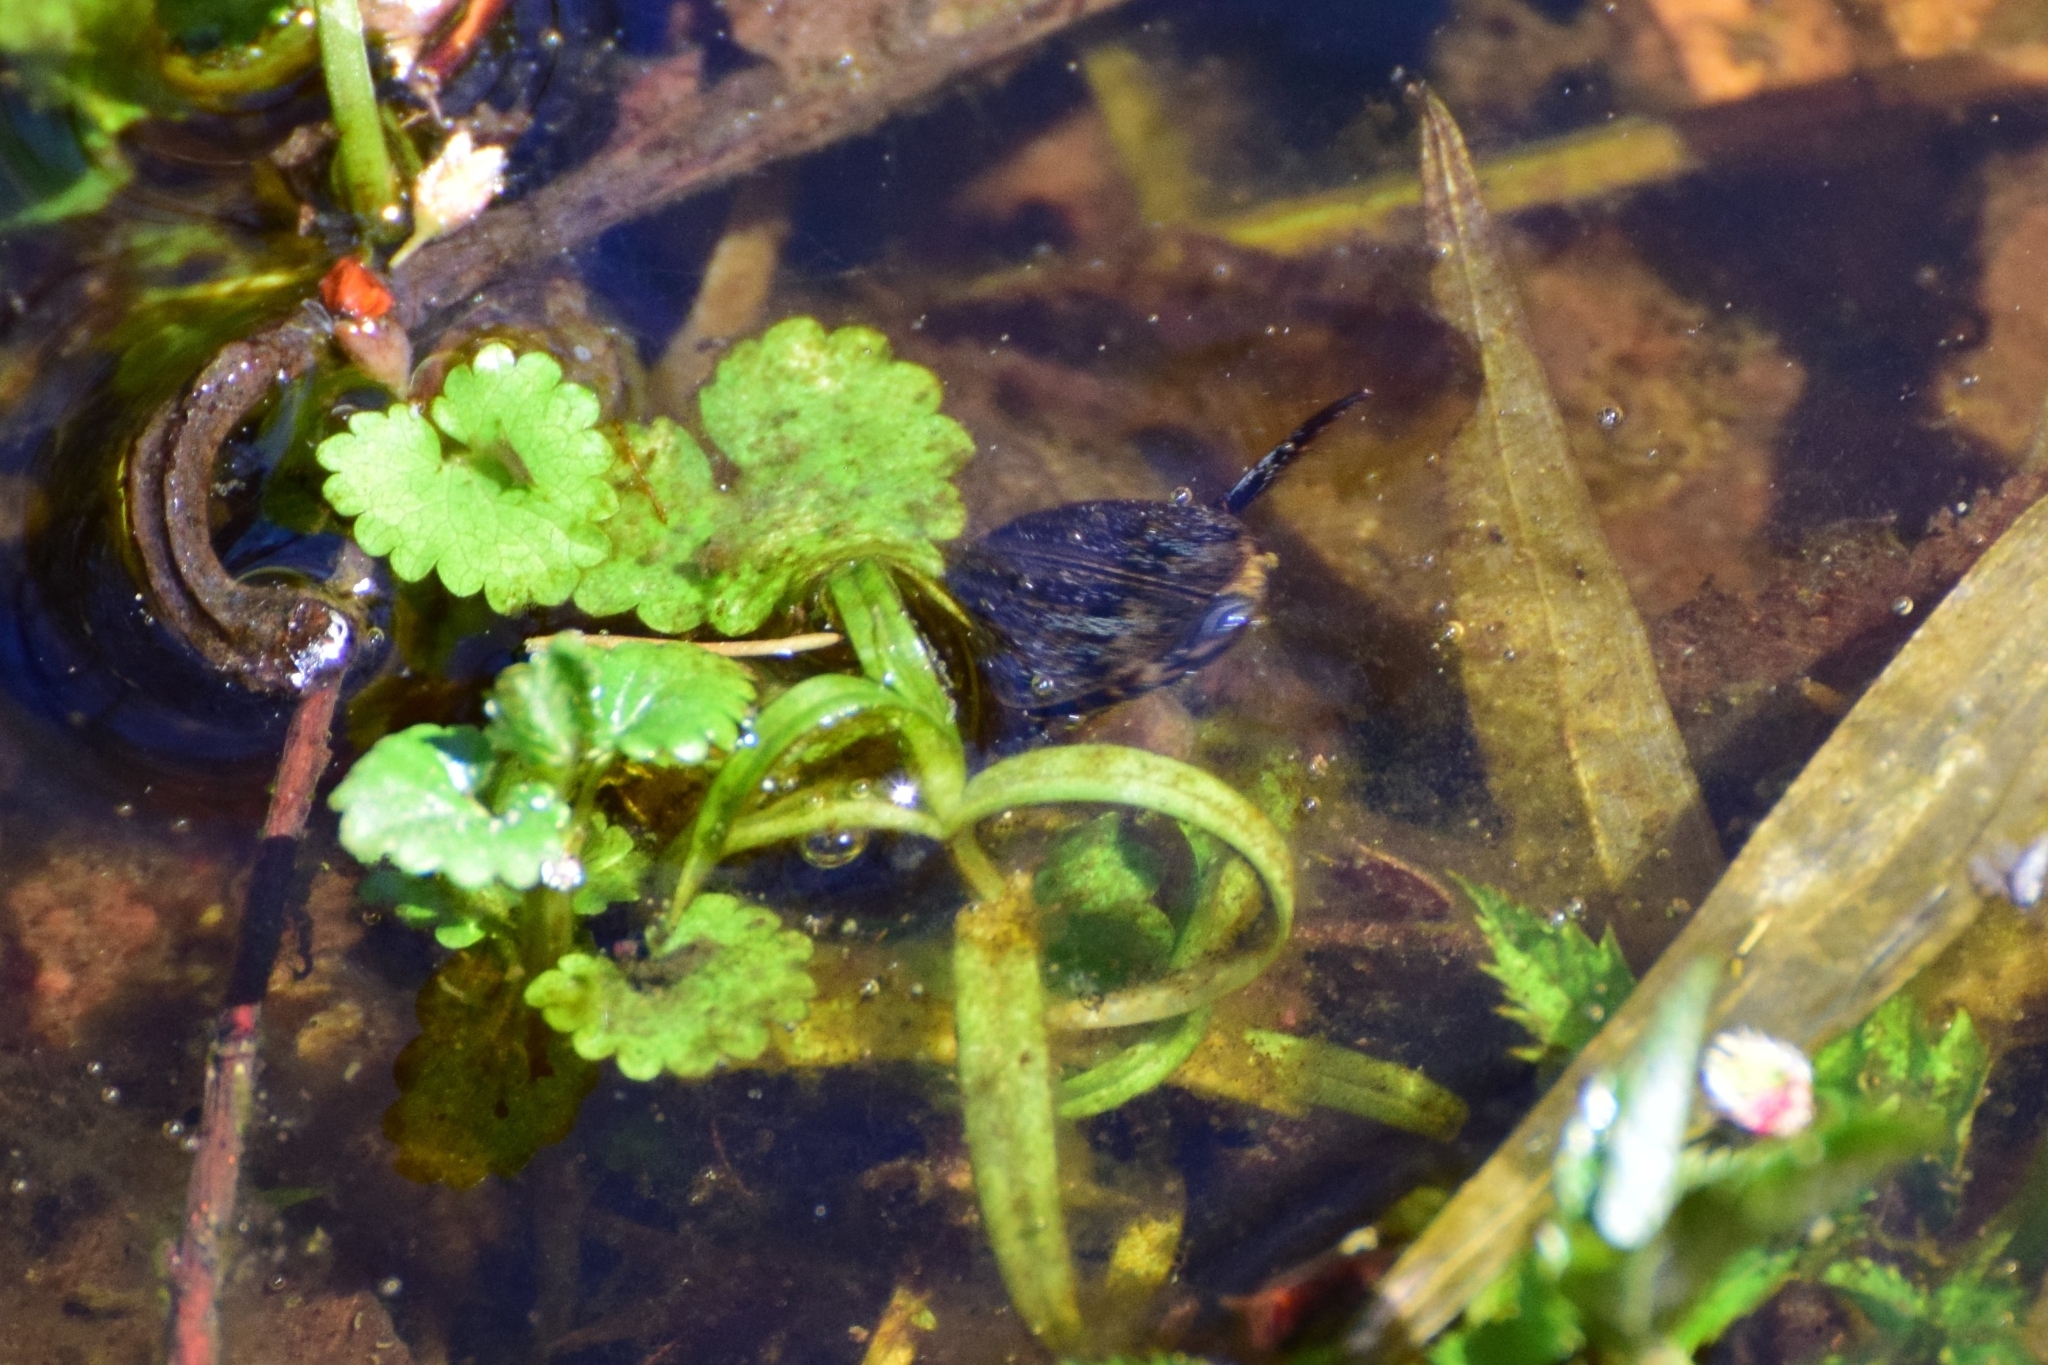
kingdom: Animalia
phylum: Arthropoda
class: Insecta
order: Coleoptera
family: Dytiscidae
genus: Acilius
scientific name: Acilius sulcatus
